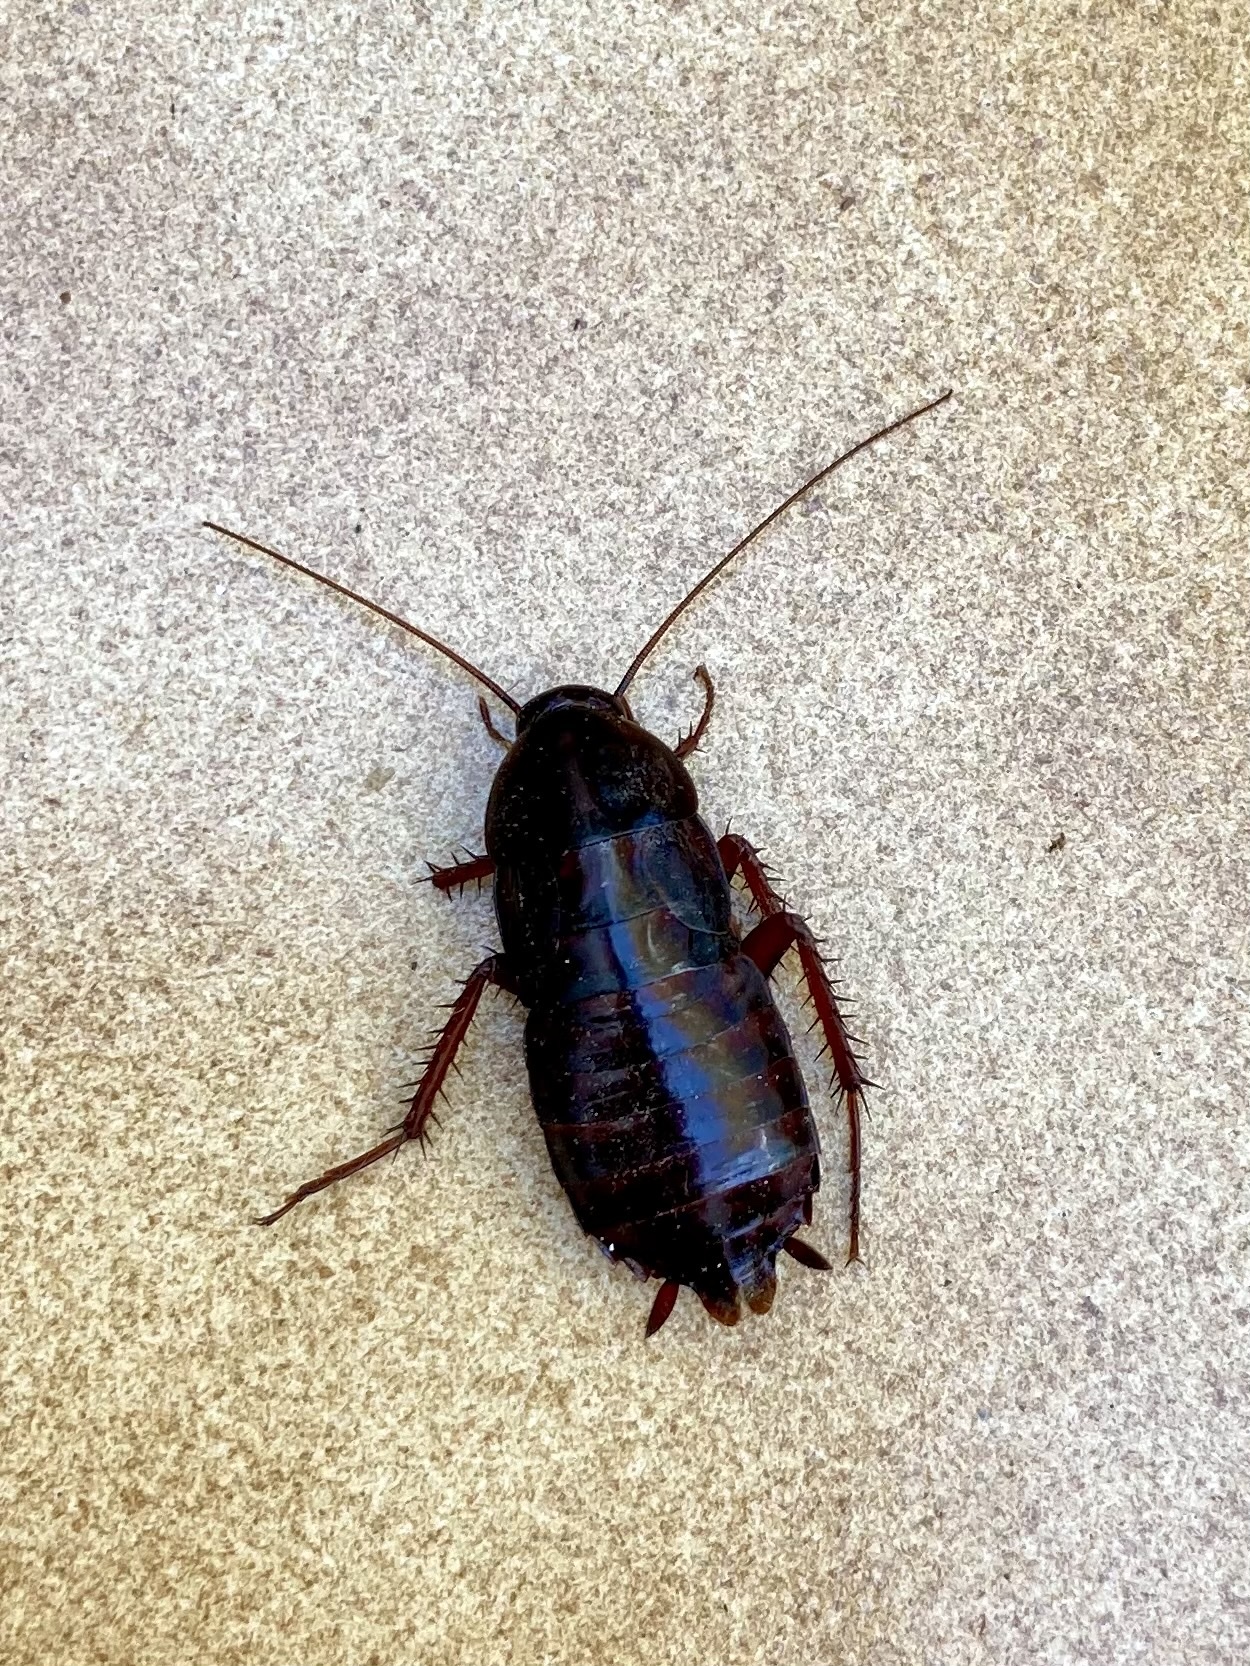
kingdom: Animalia
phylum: Arthropoda
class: Insecta
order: Blattodea
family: Blattidae
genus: Blatta
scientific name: Blatta orientalis
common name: Oriental cockroach
